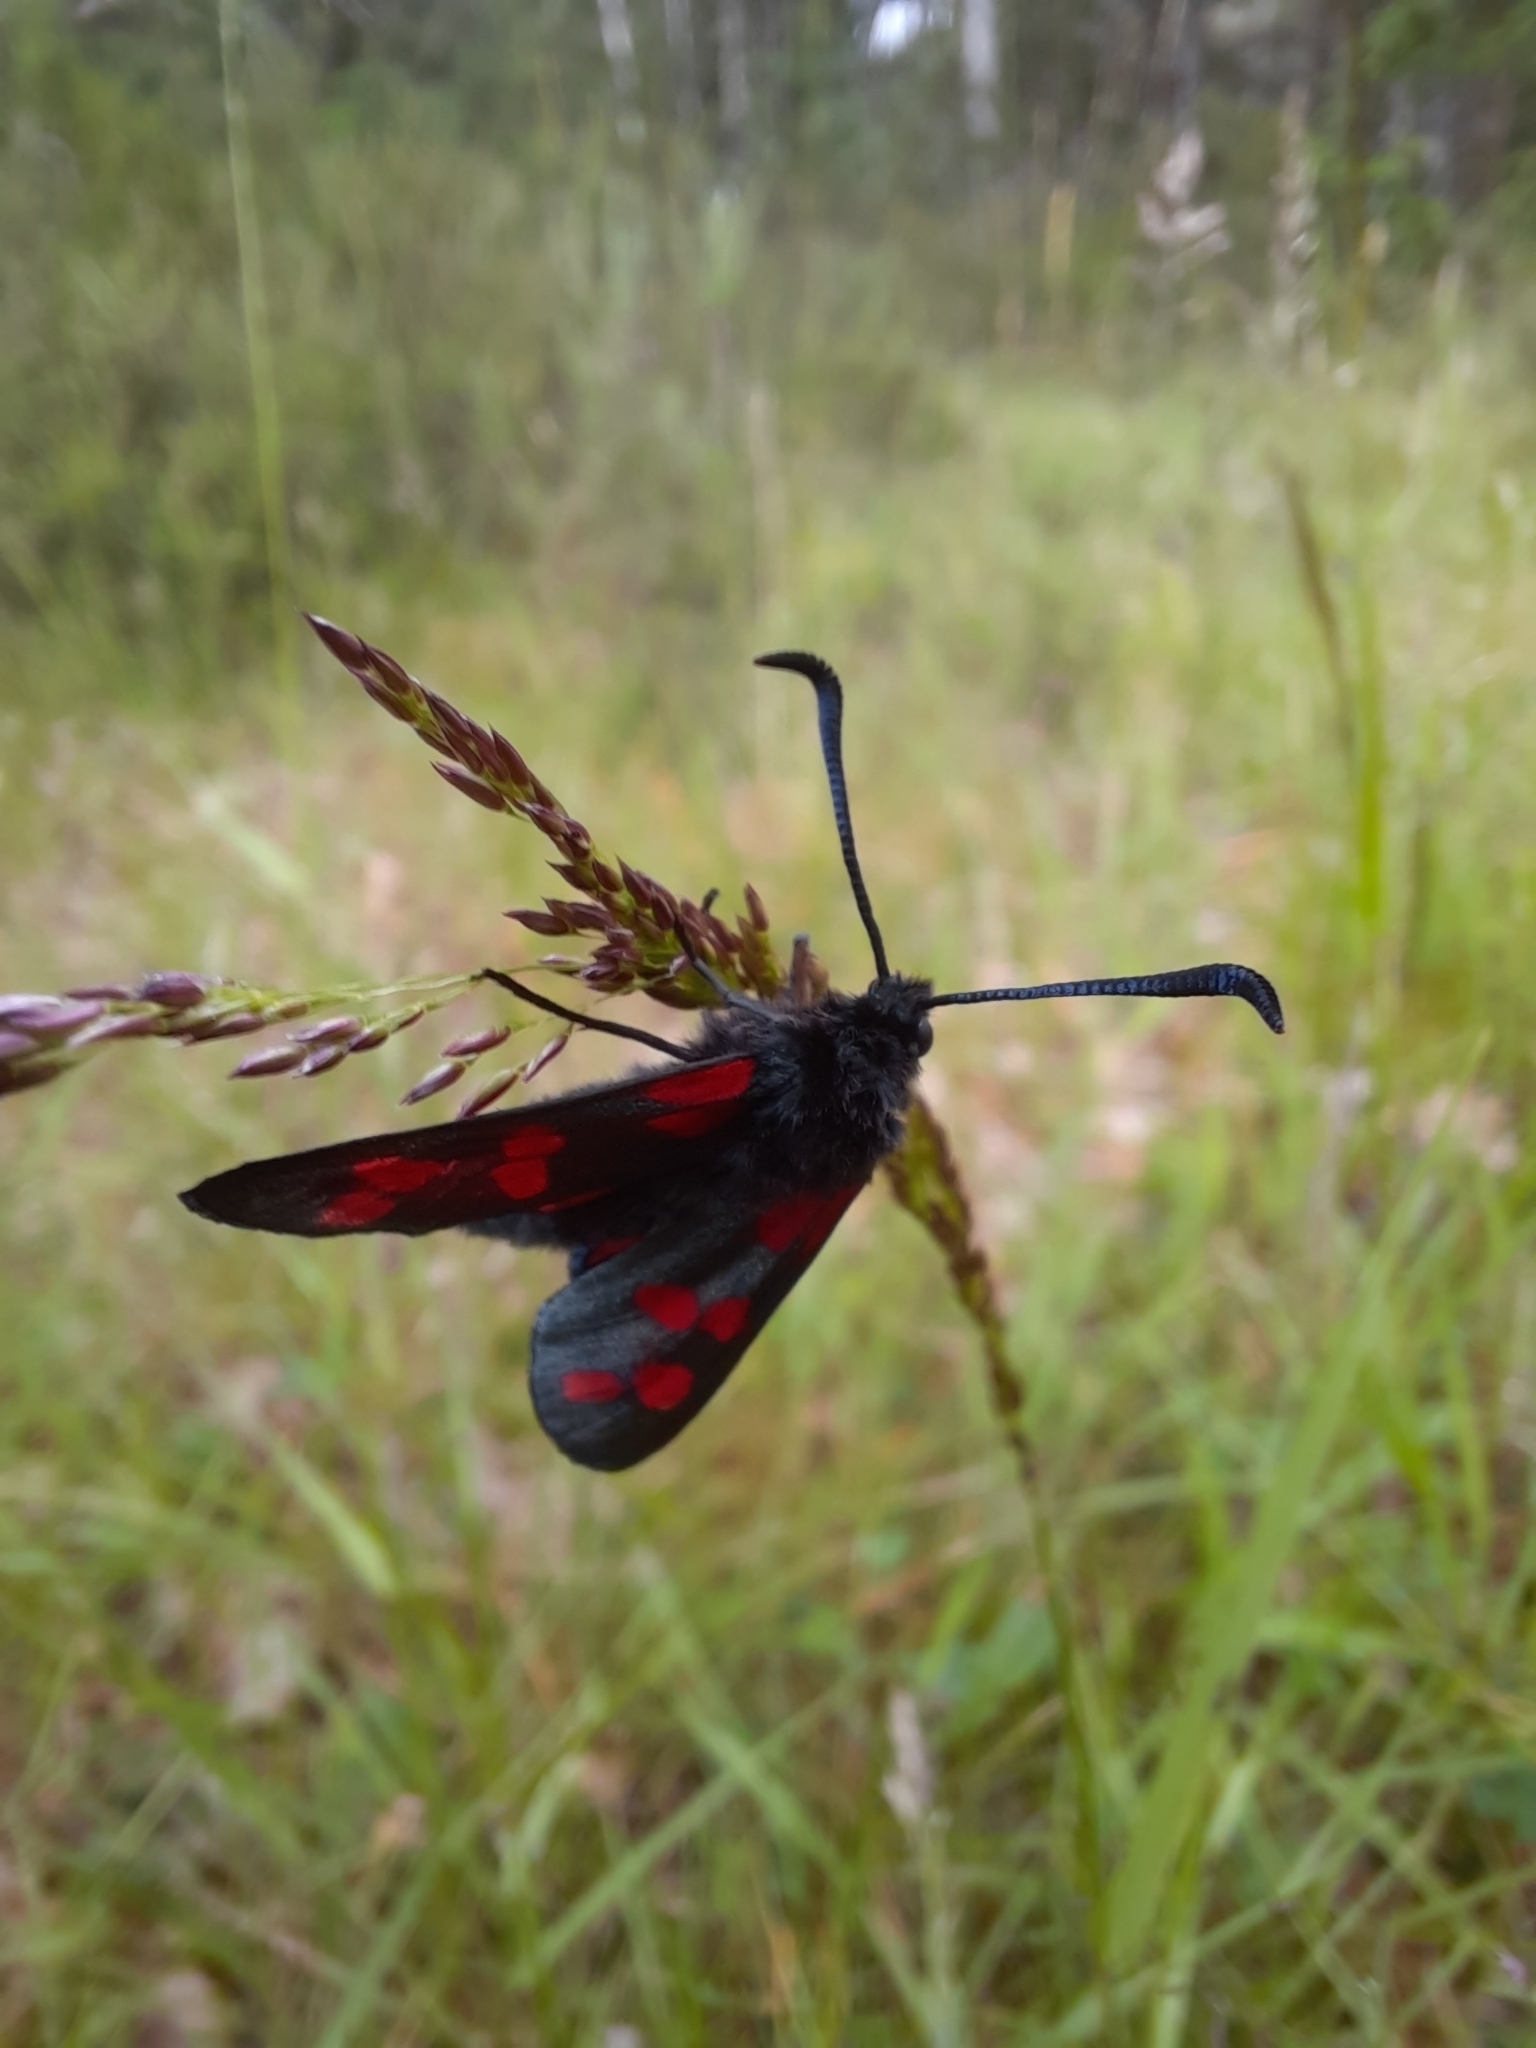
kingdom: Animalia
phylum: Arthropoda
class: Insecta
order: Lepidoptera
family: Zygaenidae
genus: Zygaena
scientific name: Zygaena filipendulae
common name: Six-spot burnet
